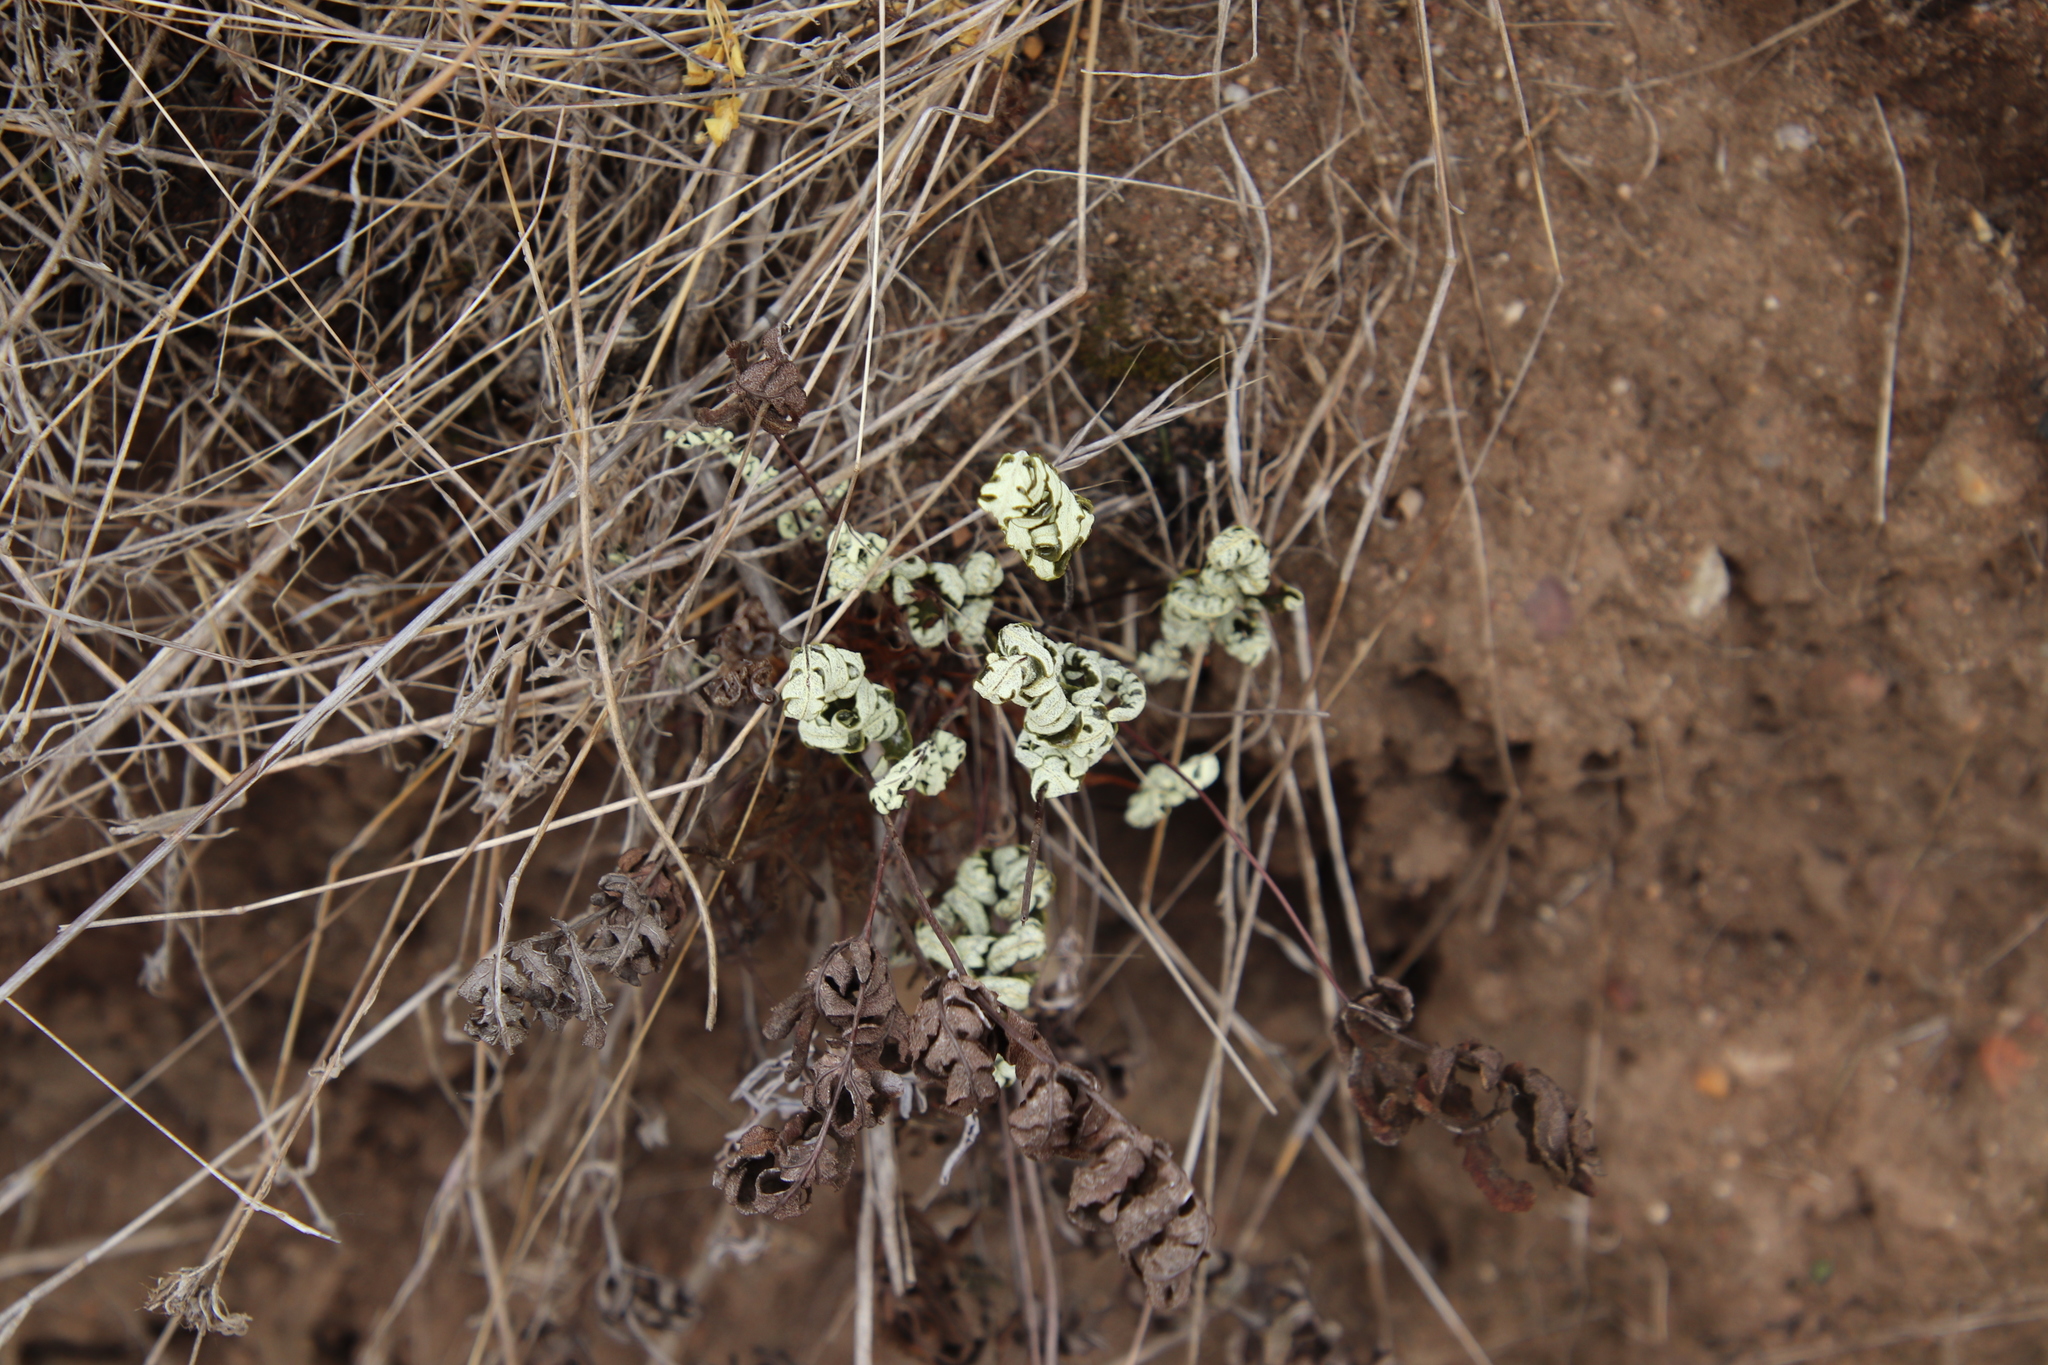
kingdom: Plantae
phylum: Tracheophyta
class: Polypodiopsida
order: Polypodiales
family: Pteridaceae
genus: Pentagramma
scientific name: Pentagramma glanduloviscida
